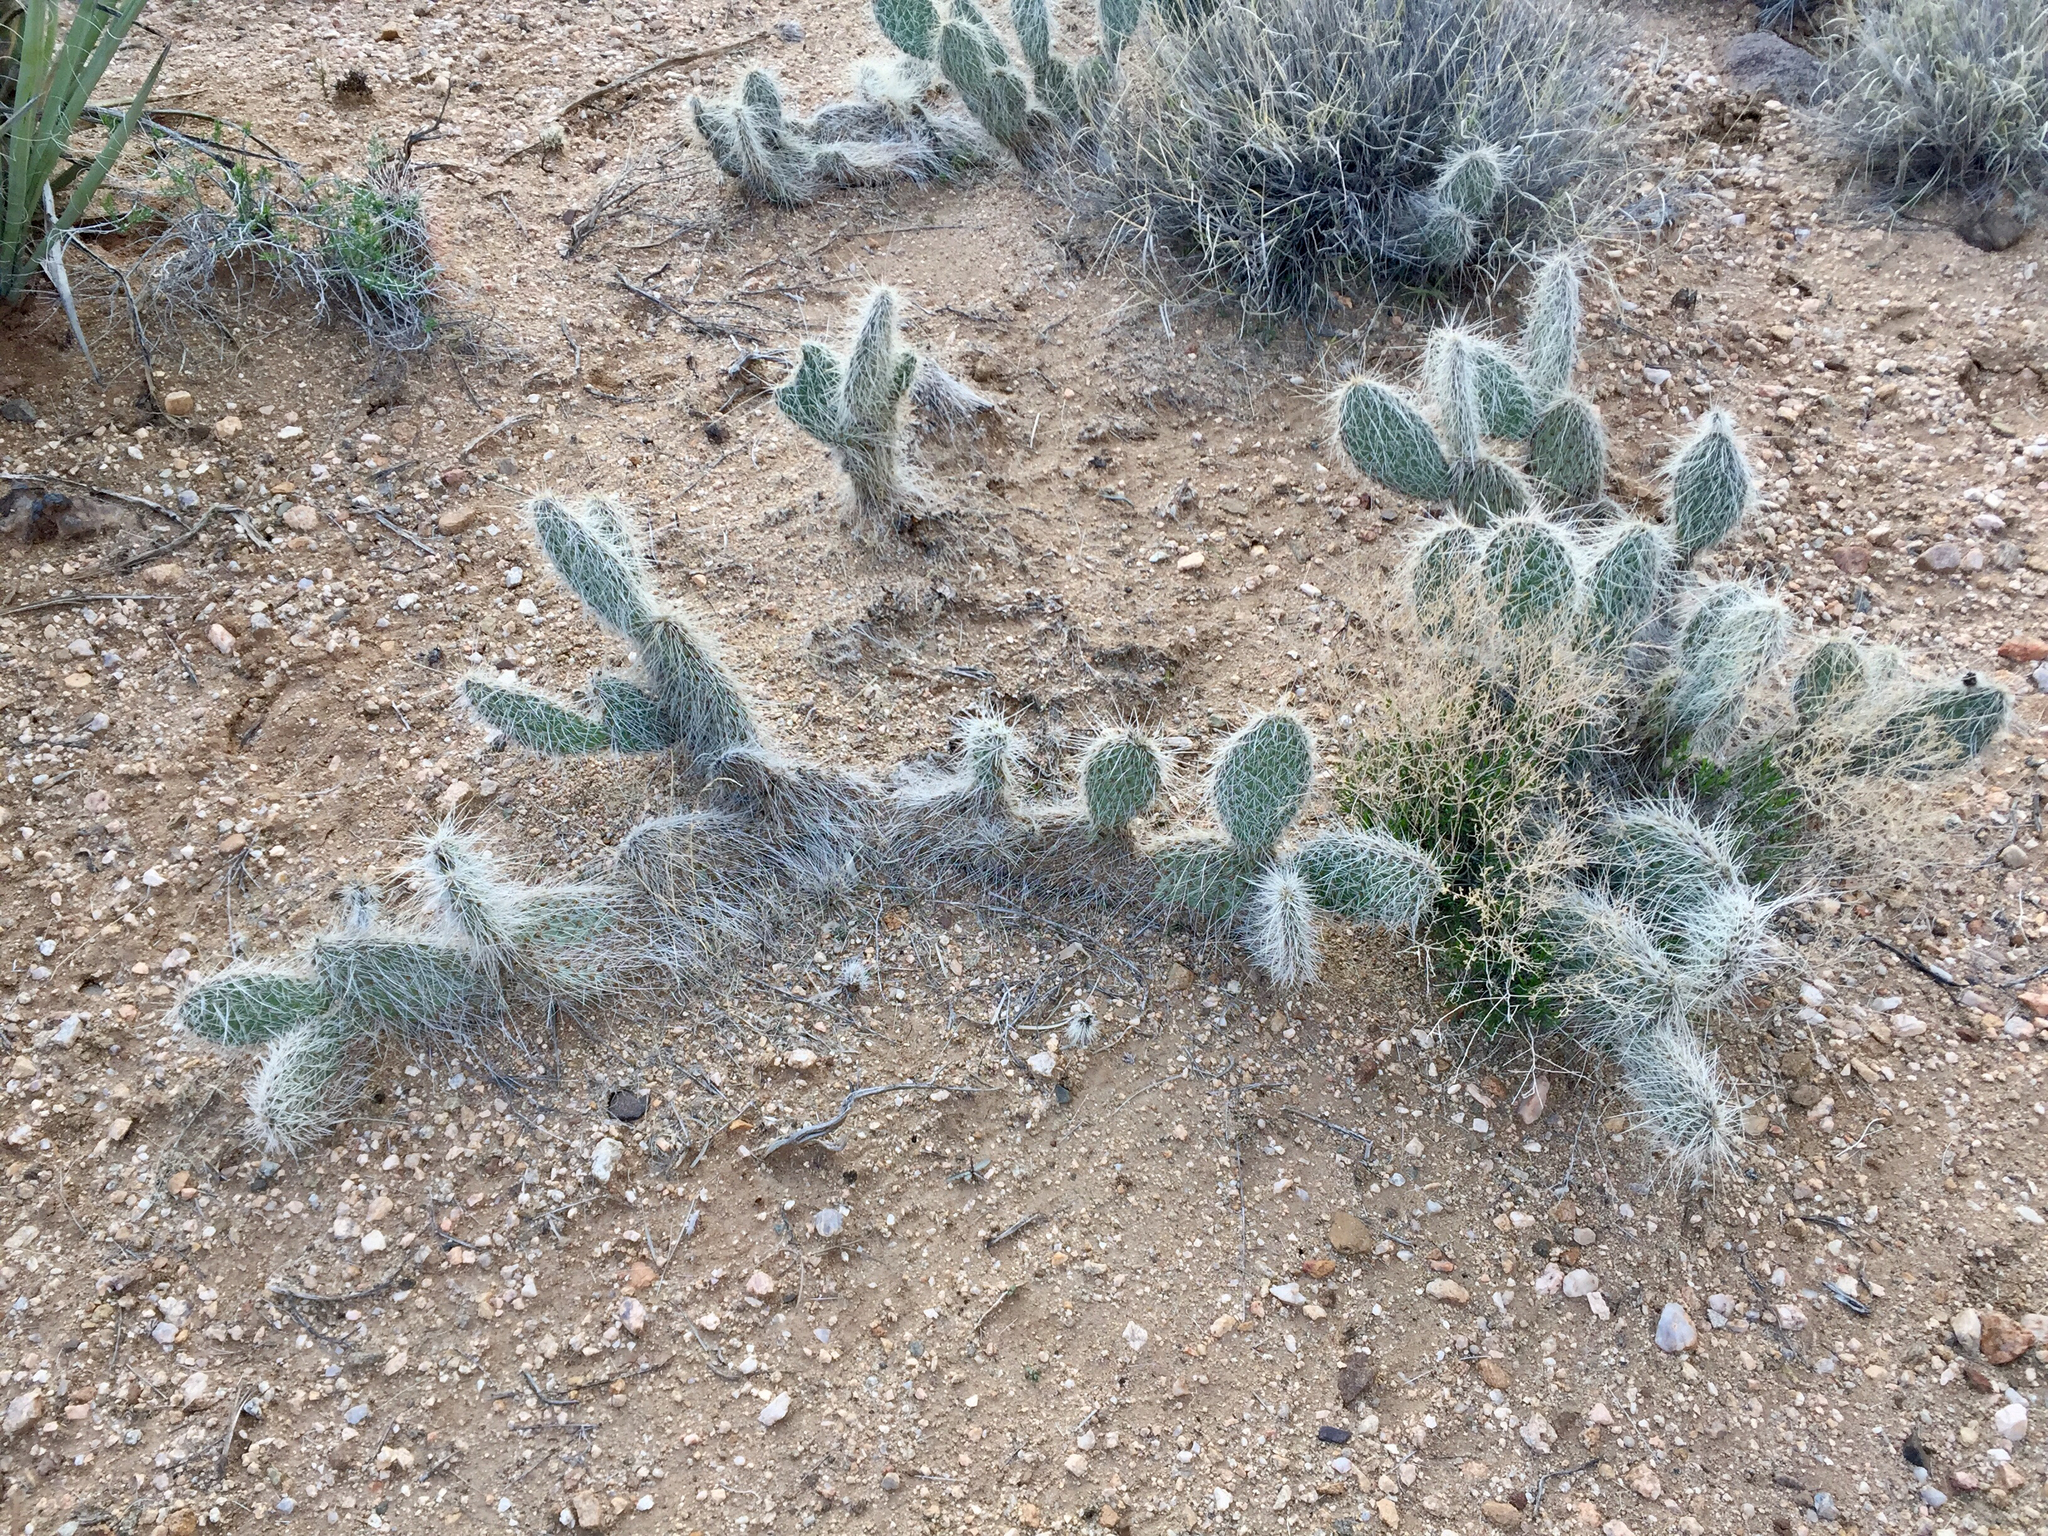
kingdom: Plantae
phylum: Tracheophyta
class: Magnoliopsida
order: Caryophyllales
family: Cactaceae
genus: Opuntia
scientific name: Opuntia polyacantha
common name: Plains prickly-pear
